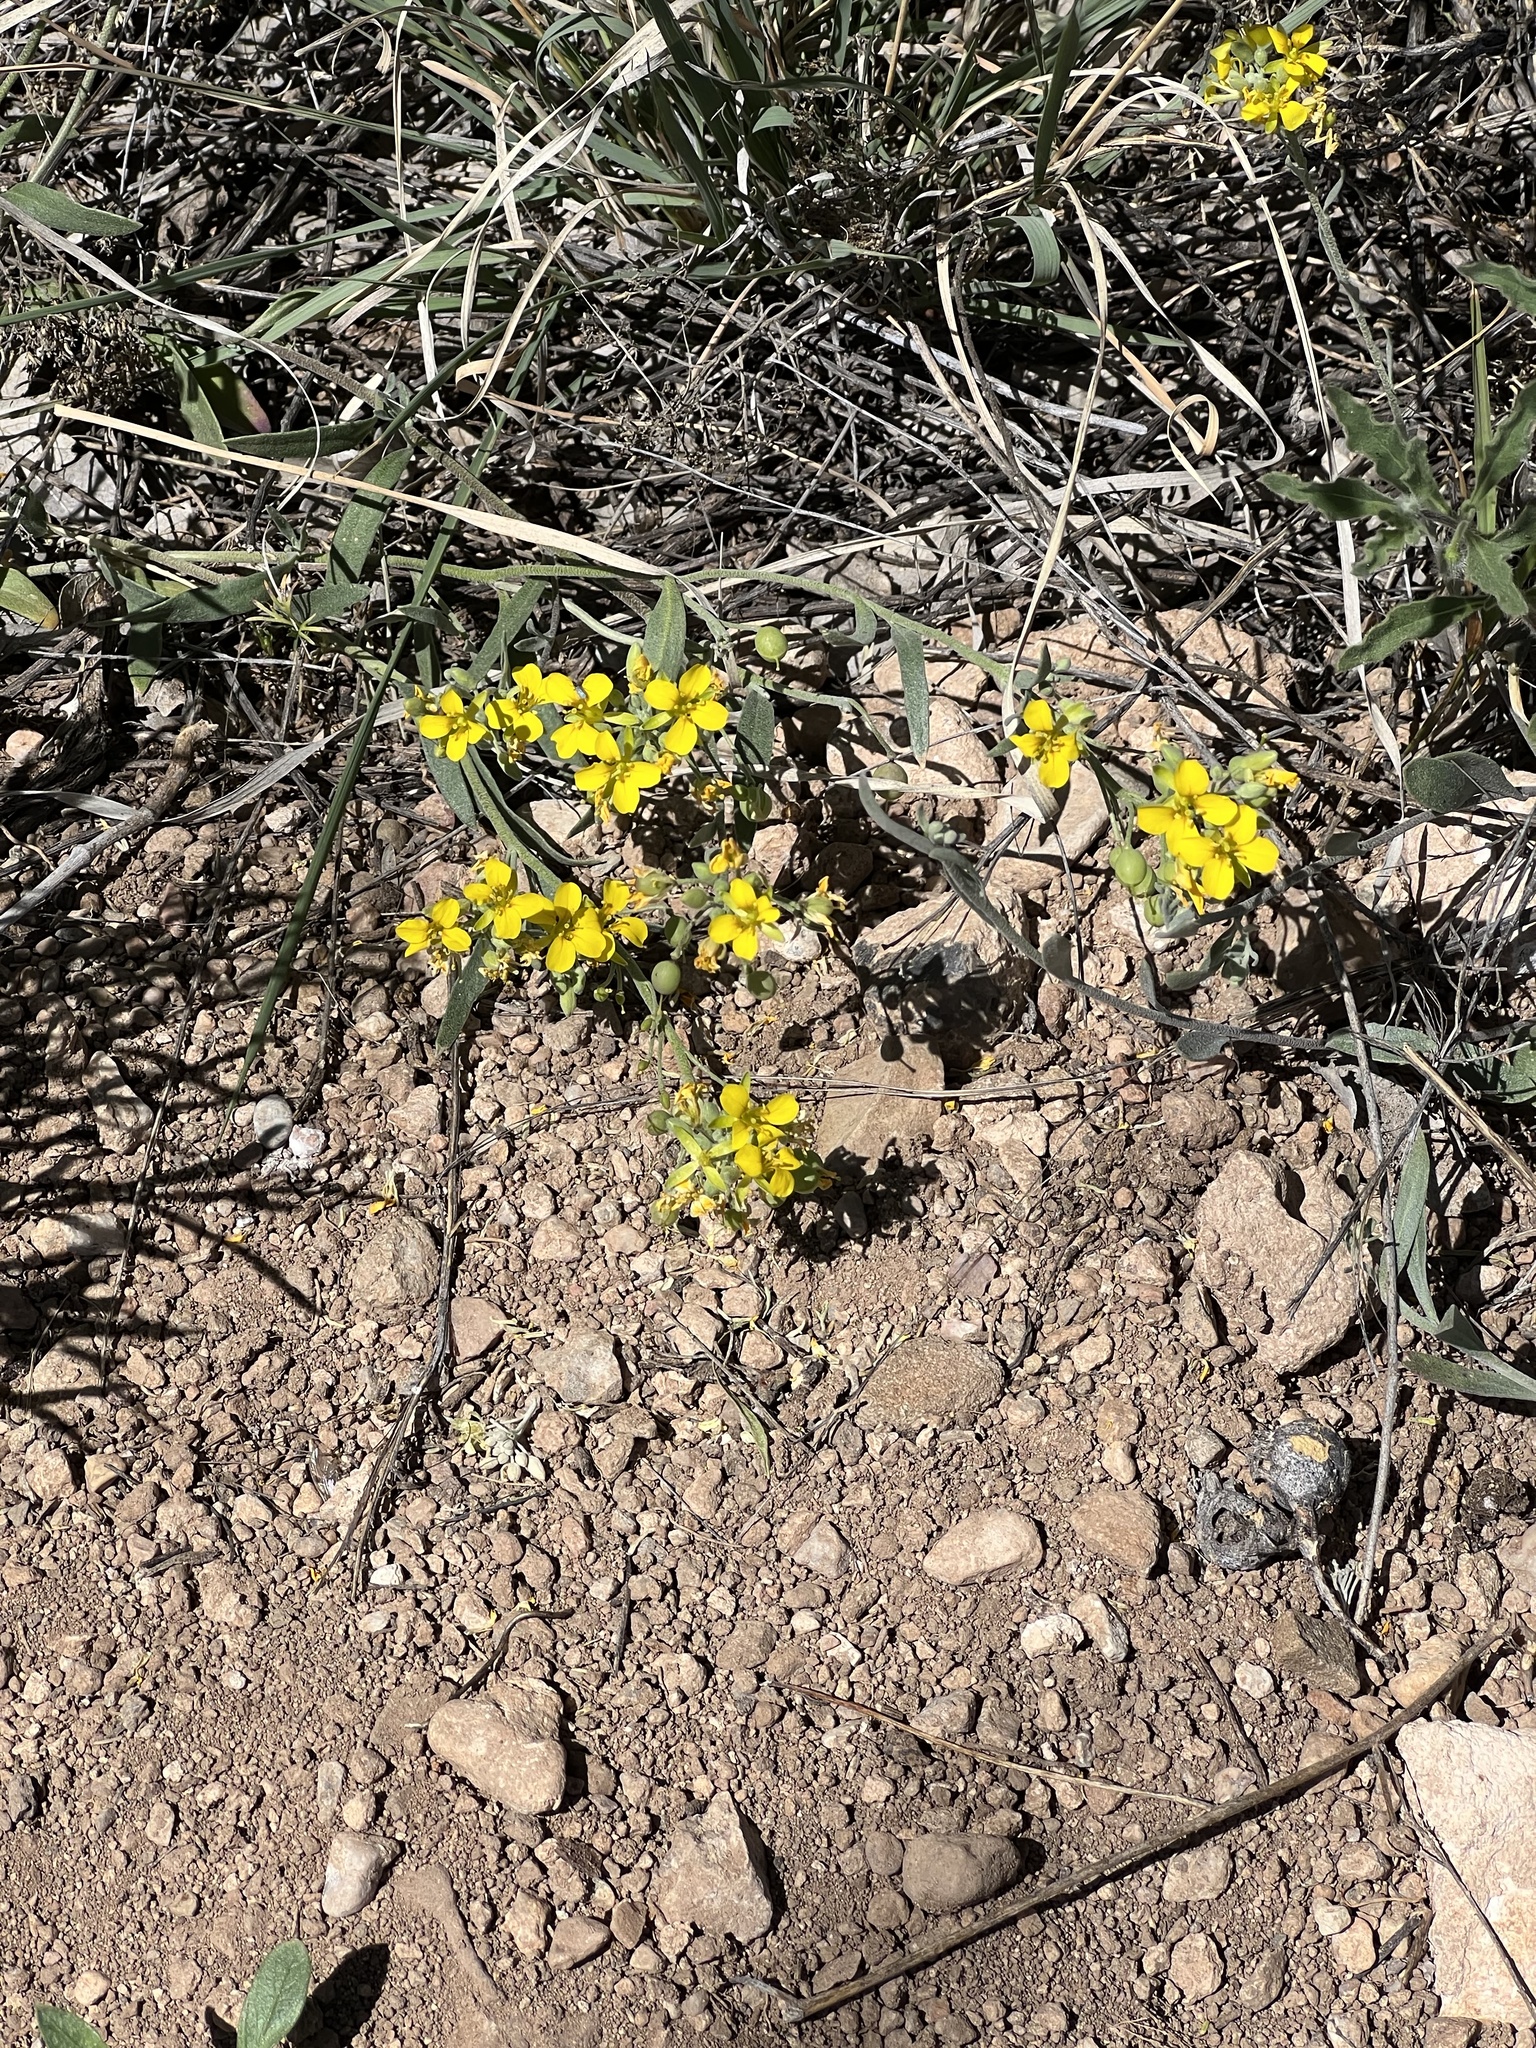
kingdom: Plantae
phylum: Tracheophyta
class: Magnoliopsida
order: Brassicales
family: Brassicaceae
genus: Physaria
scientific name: Physaria gordonii
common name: Gordon's bladderpod
